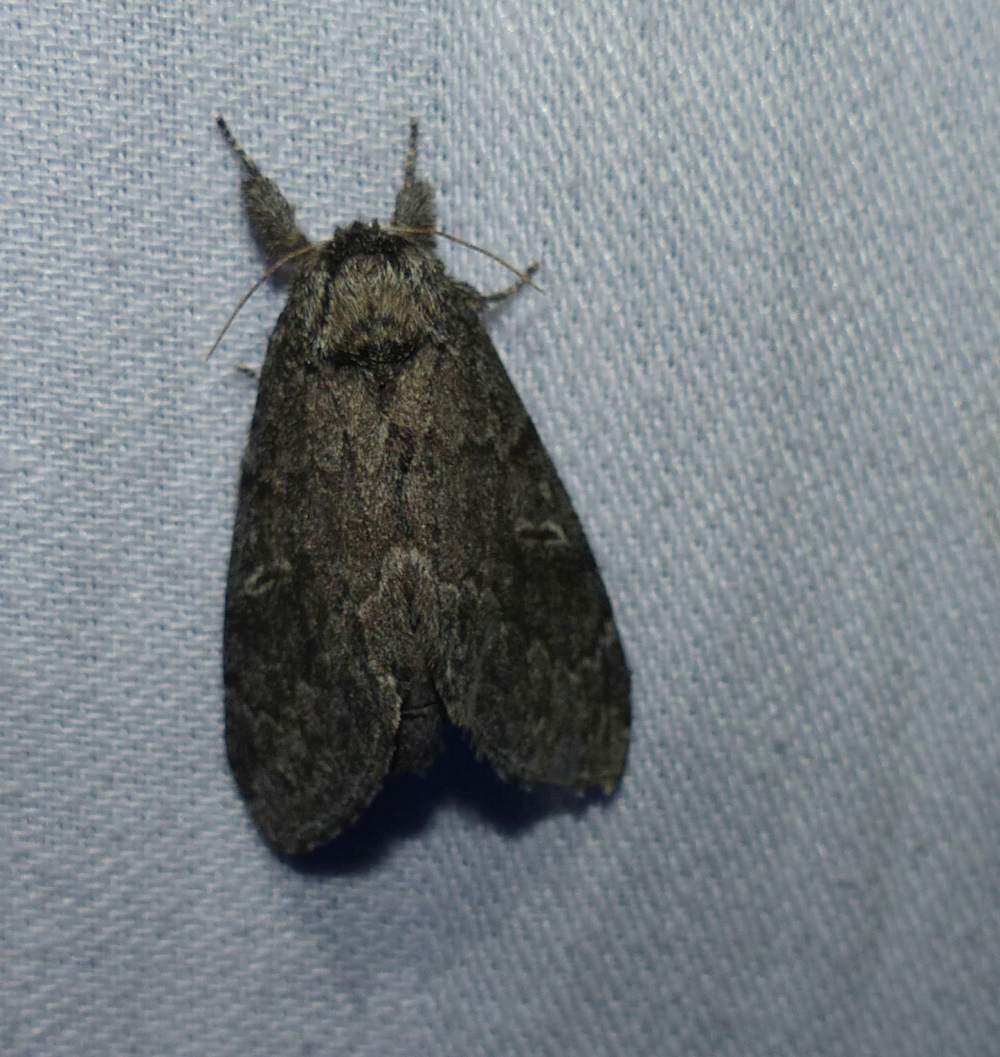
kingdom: Animalia
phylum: Arthropoda
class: Insecta
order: Lepidoptera
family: Notodontidae
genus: Notodonta
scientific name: Notodonta torva
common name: Large dark prominent
